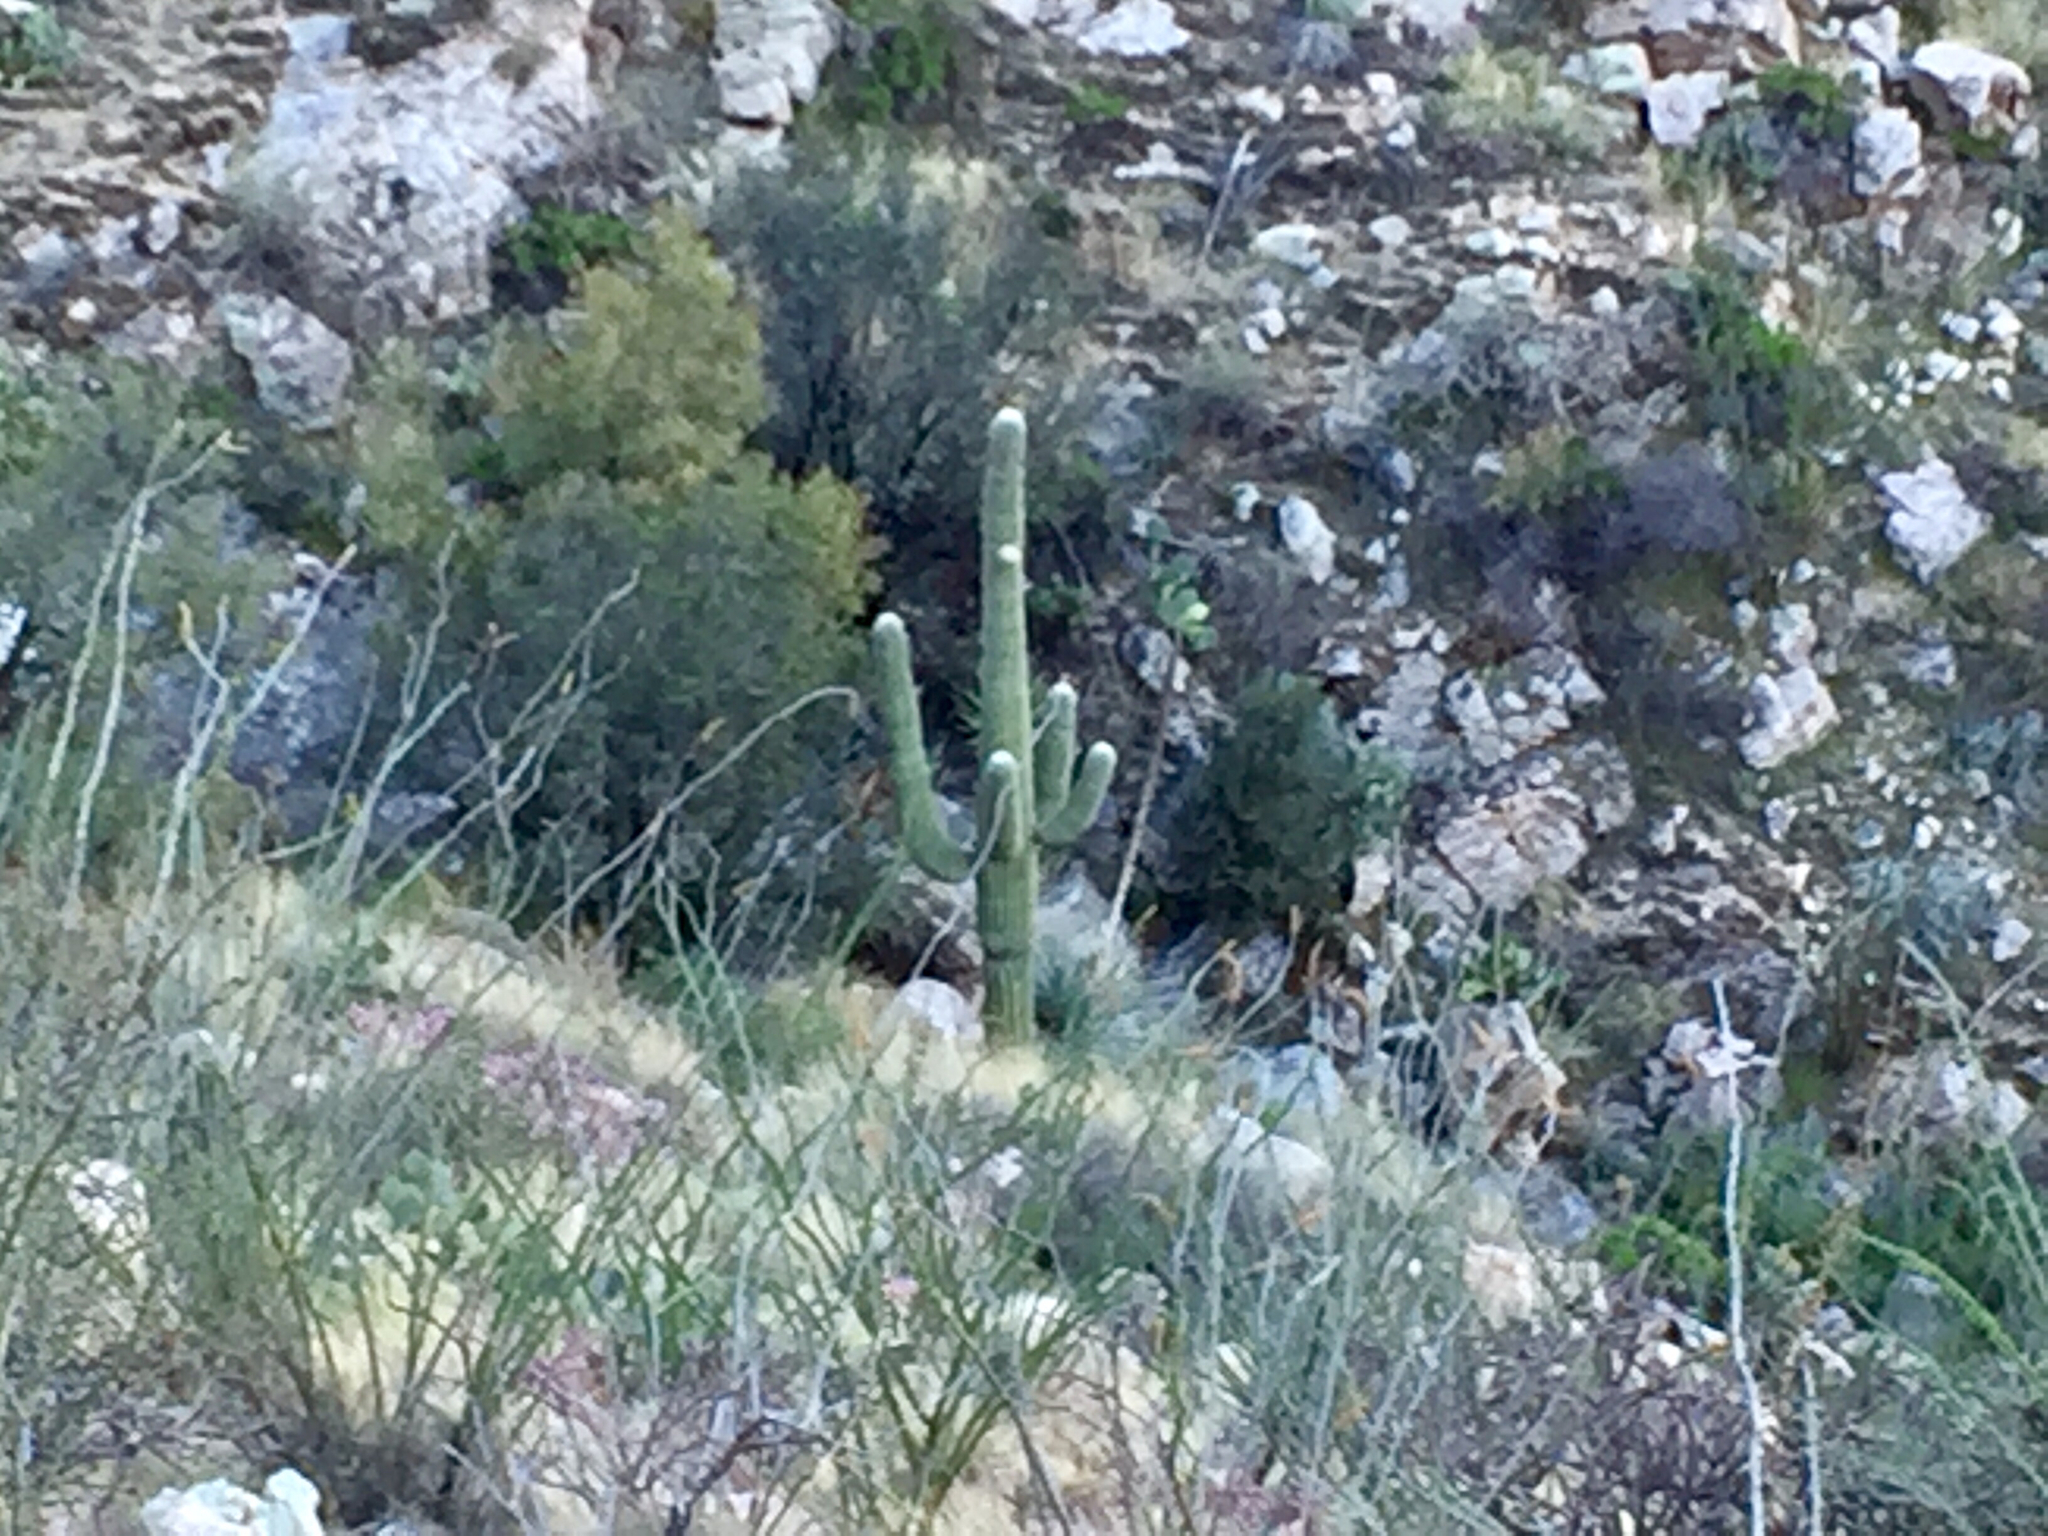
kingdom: Plantae
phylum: Tracheophyta
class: Magnoliopsida
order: Caryophyllales
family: Cactaceae
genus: Carnegiea
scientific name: Carnegiea gigantea
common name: Saguaro
